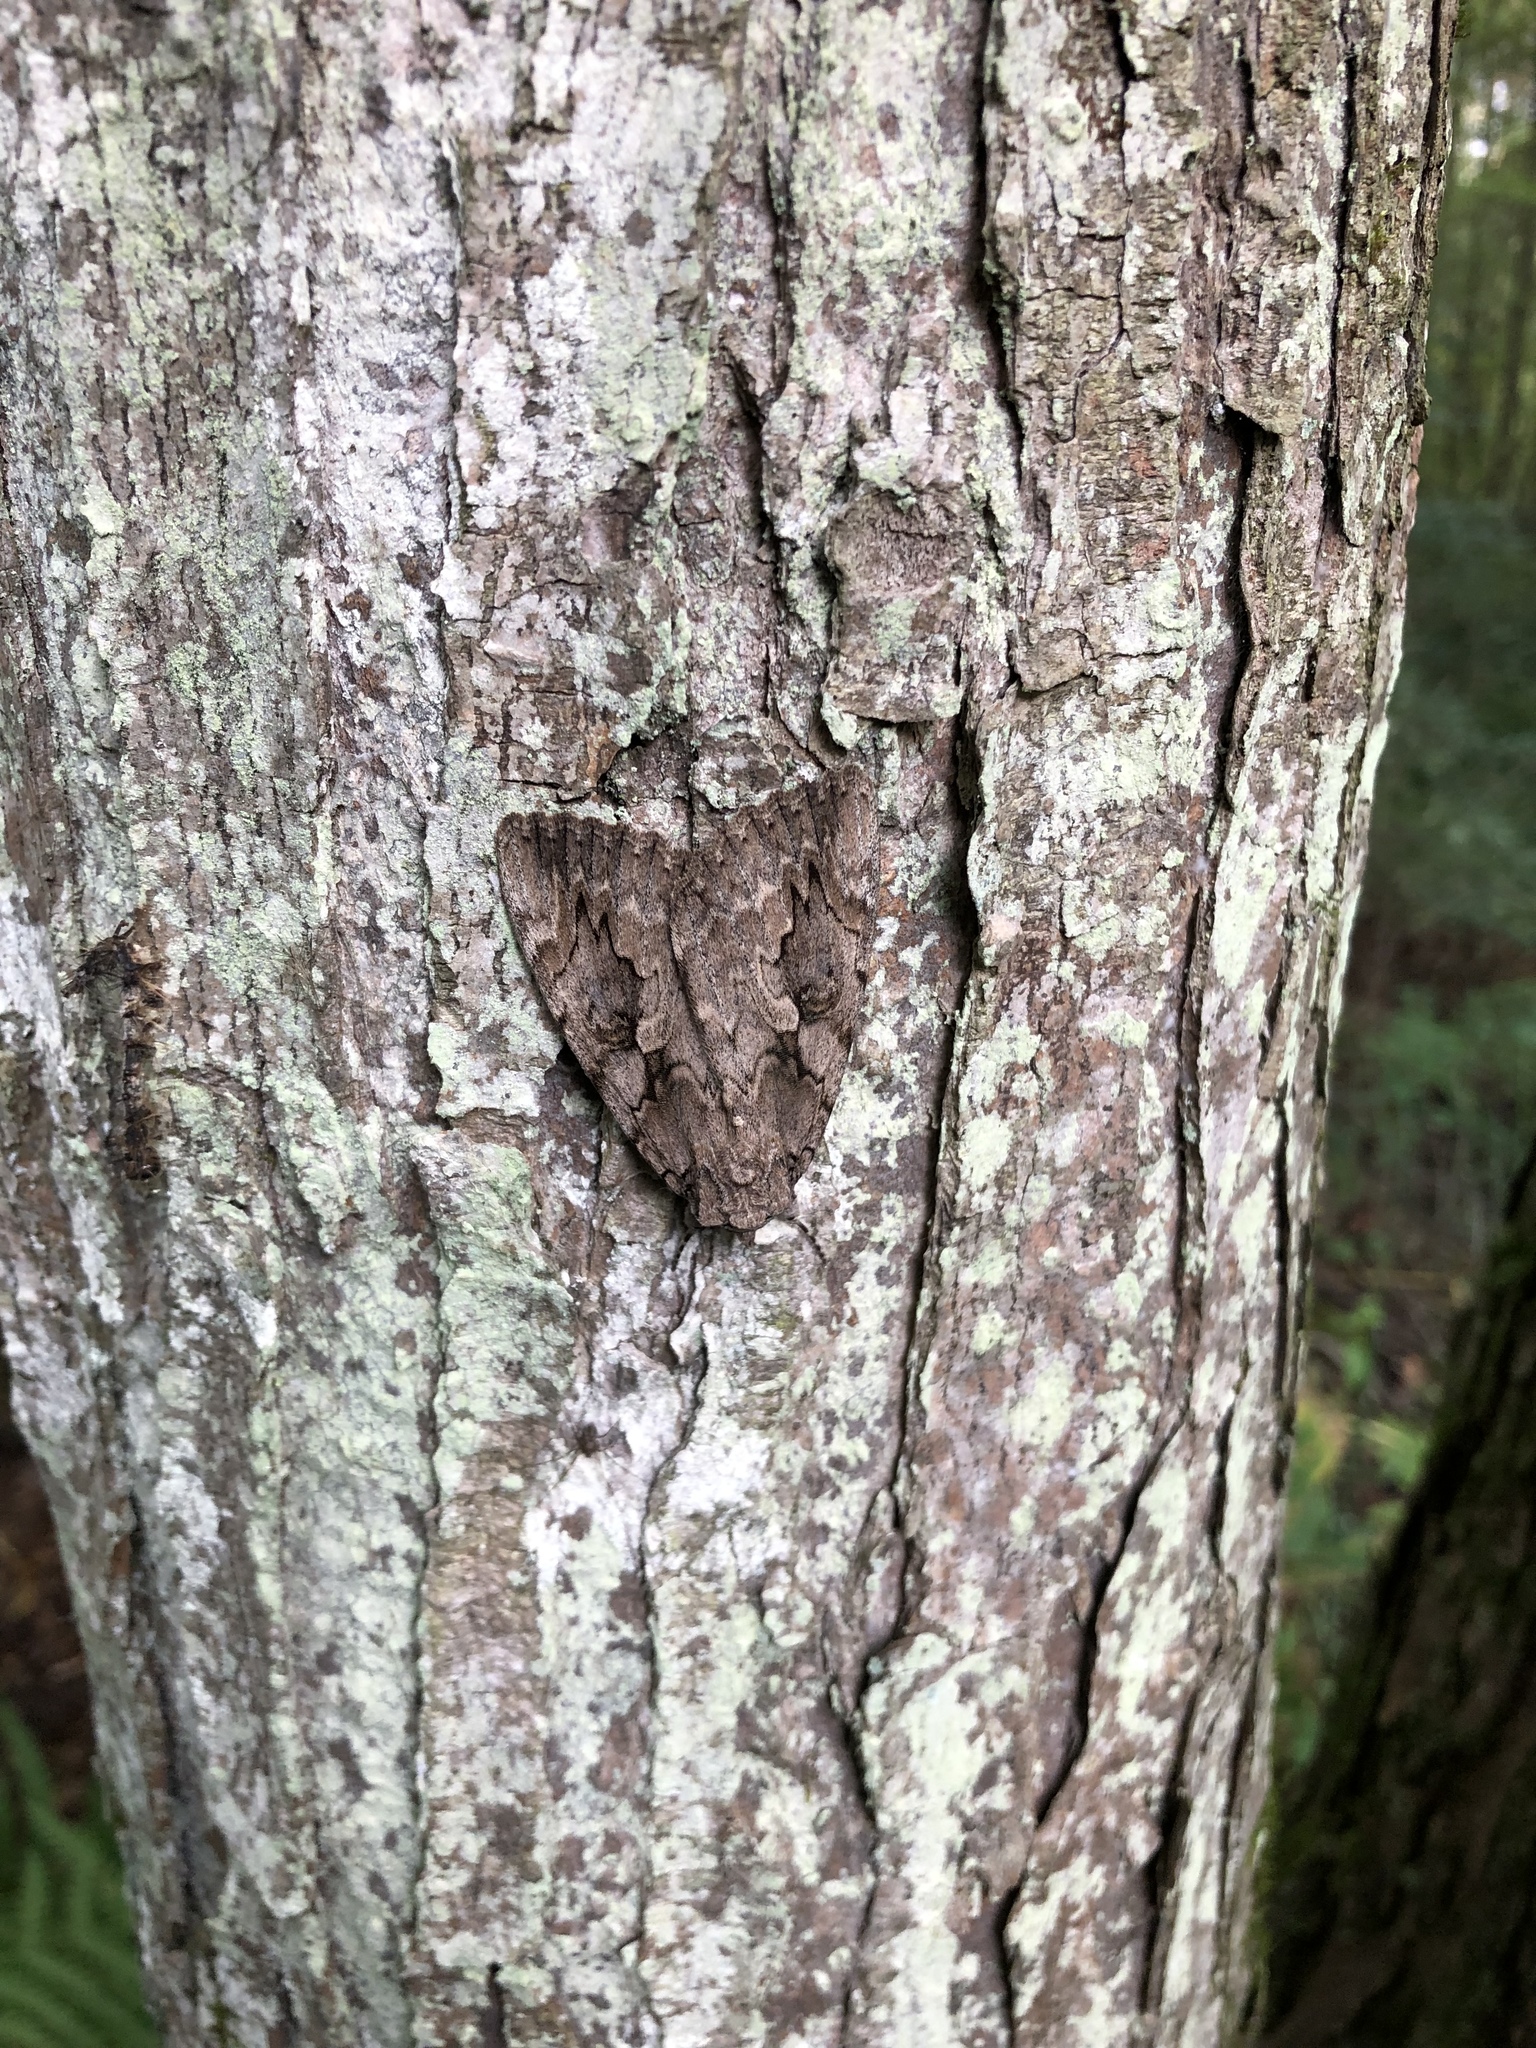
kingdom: Animalia
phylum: Arthropoda
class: Insecta
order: Lepidoptera
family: Erebidae
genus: Catocala
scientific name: Catocala amatrix
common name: Sweetheart underwing
